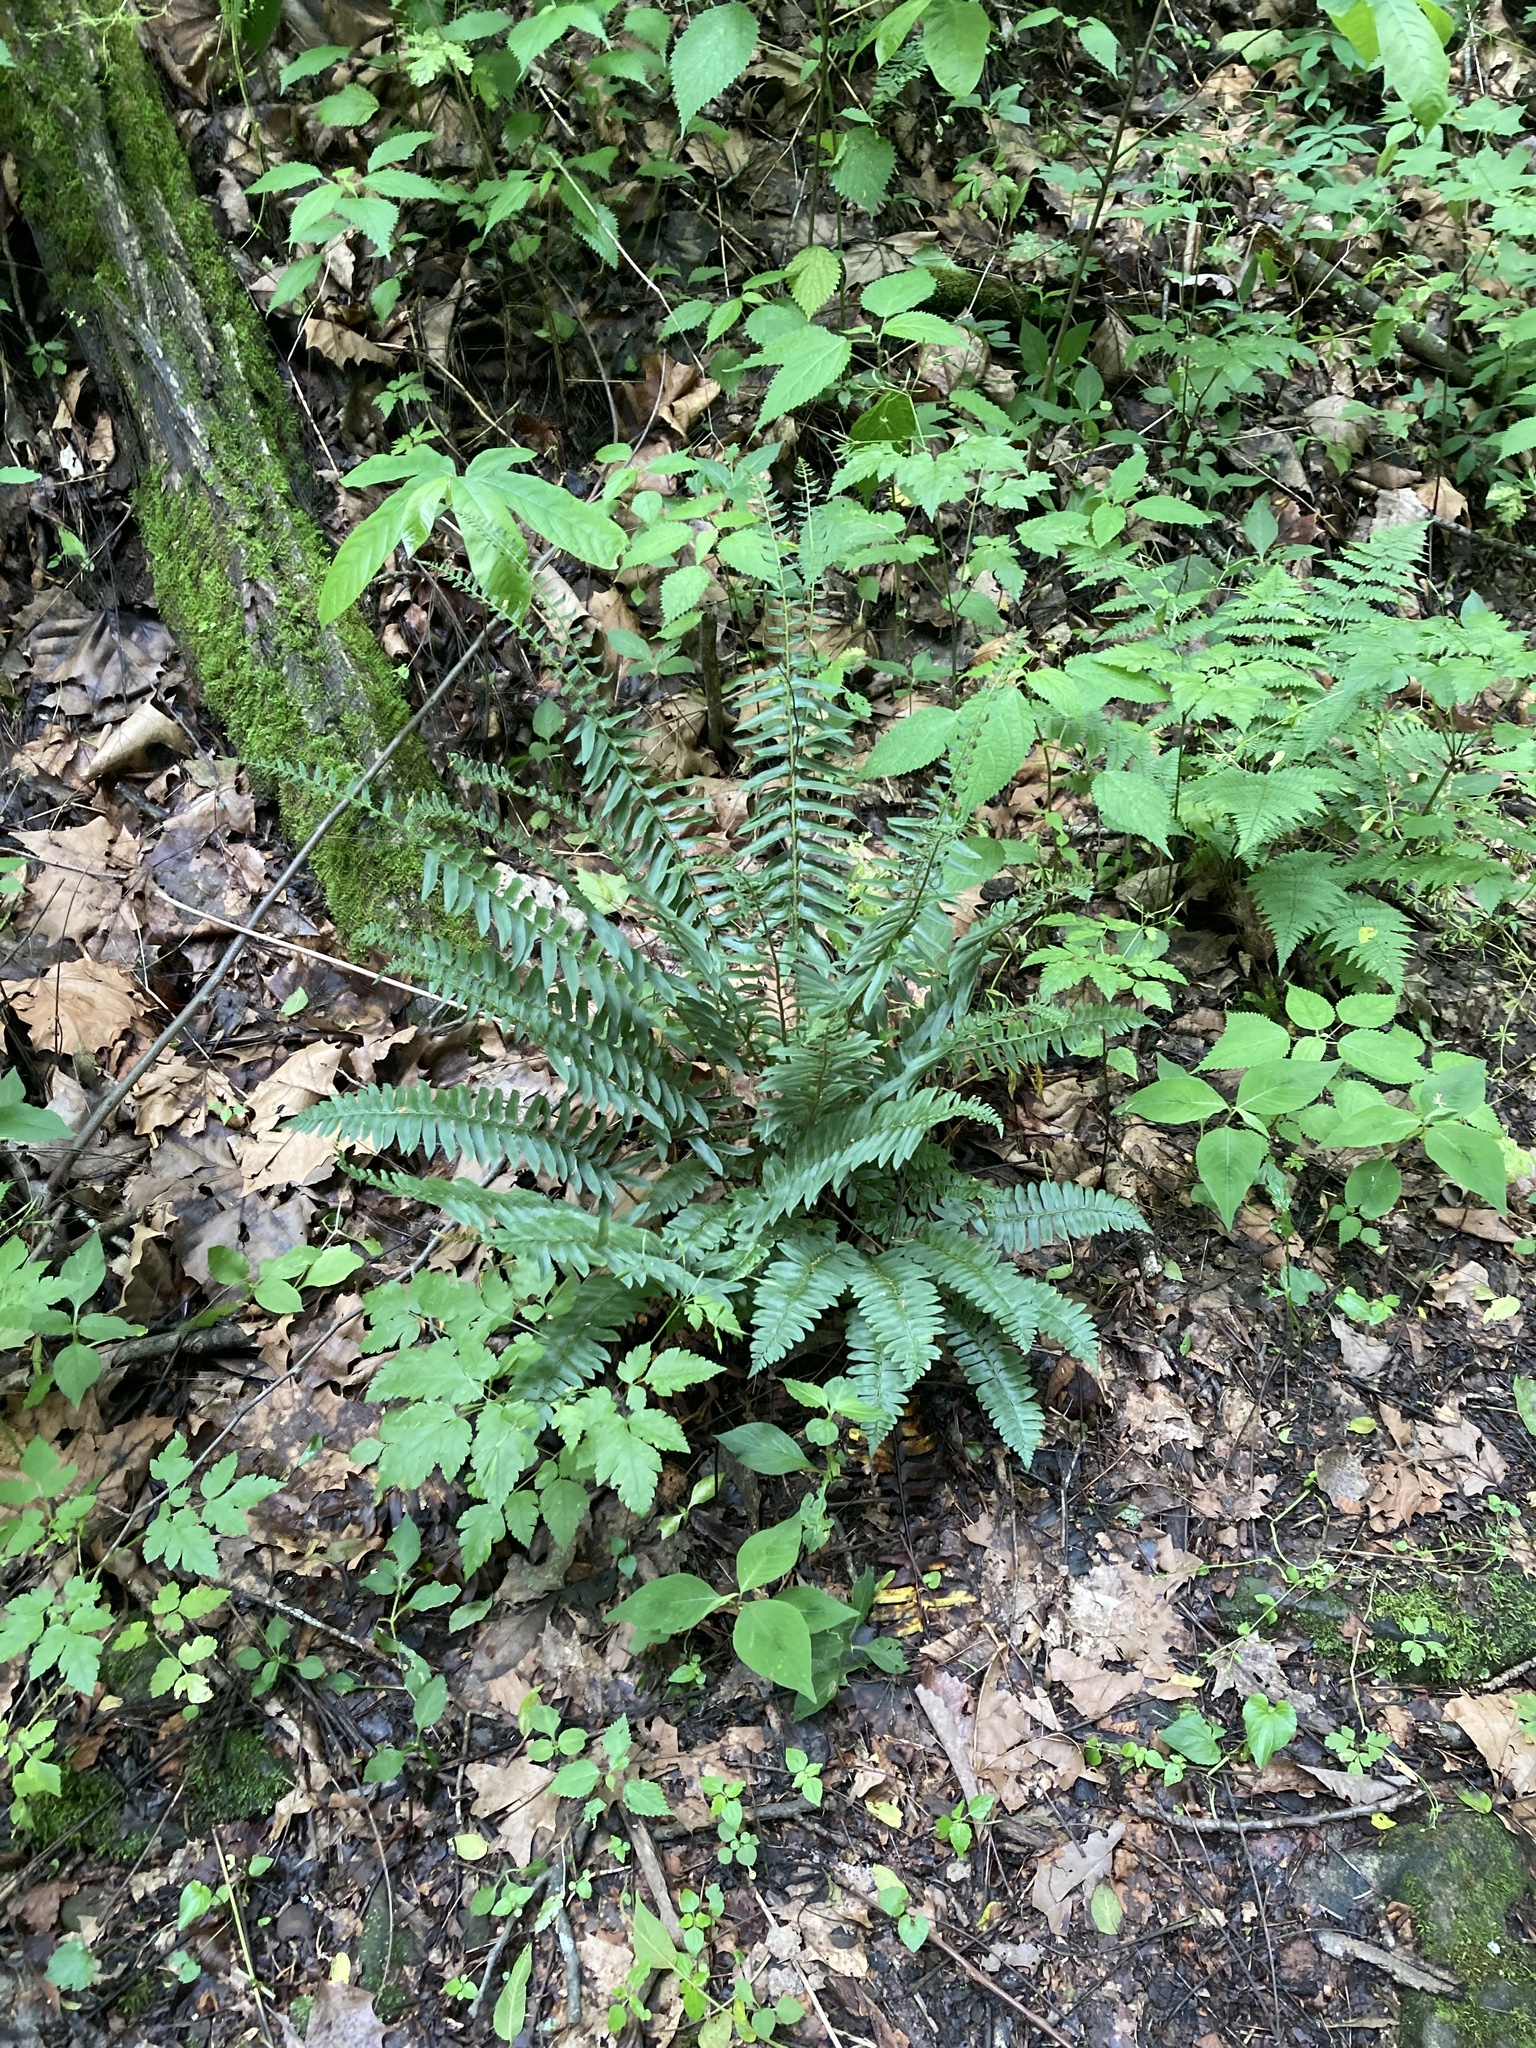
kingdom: Plantae
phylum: Tracheophyta
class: Polypodiopsida
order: Polypodiales
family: Dryopteridaceae
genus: Polystichum
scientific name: Polystichum acrostichoides
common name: Christmas fern
